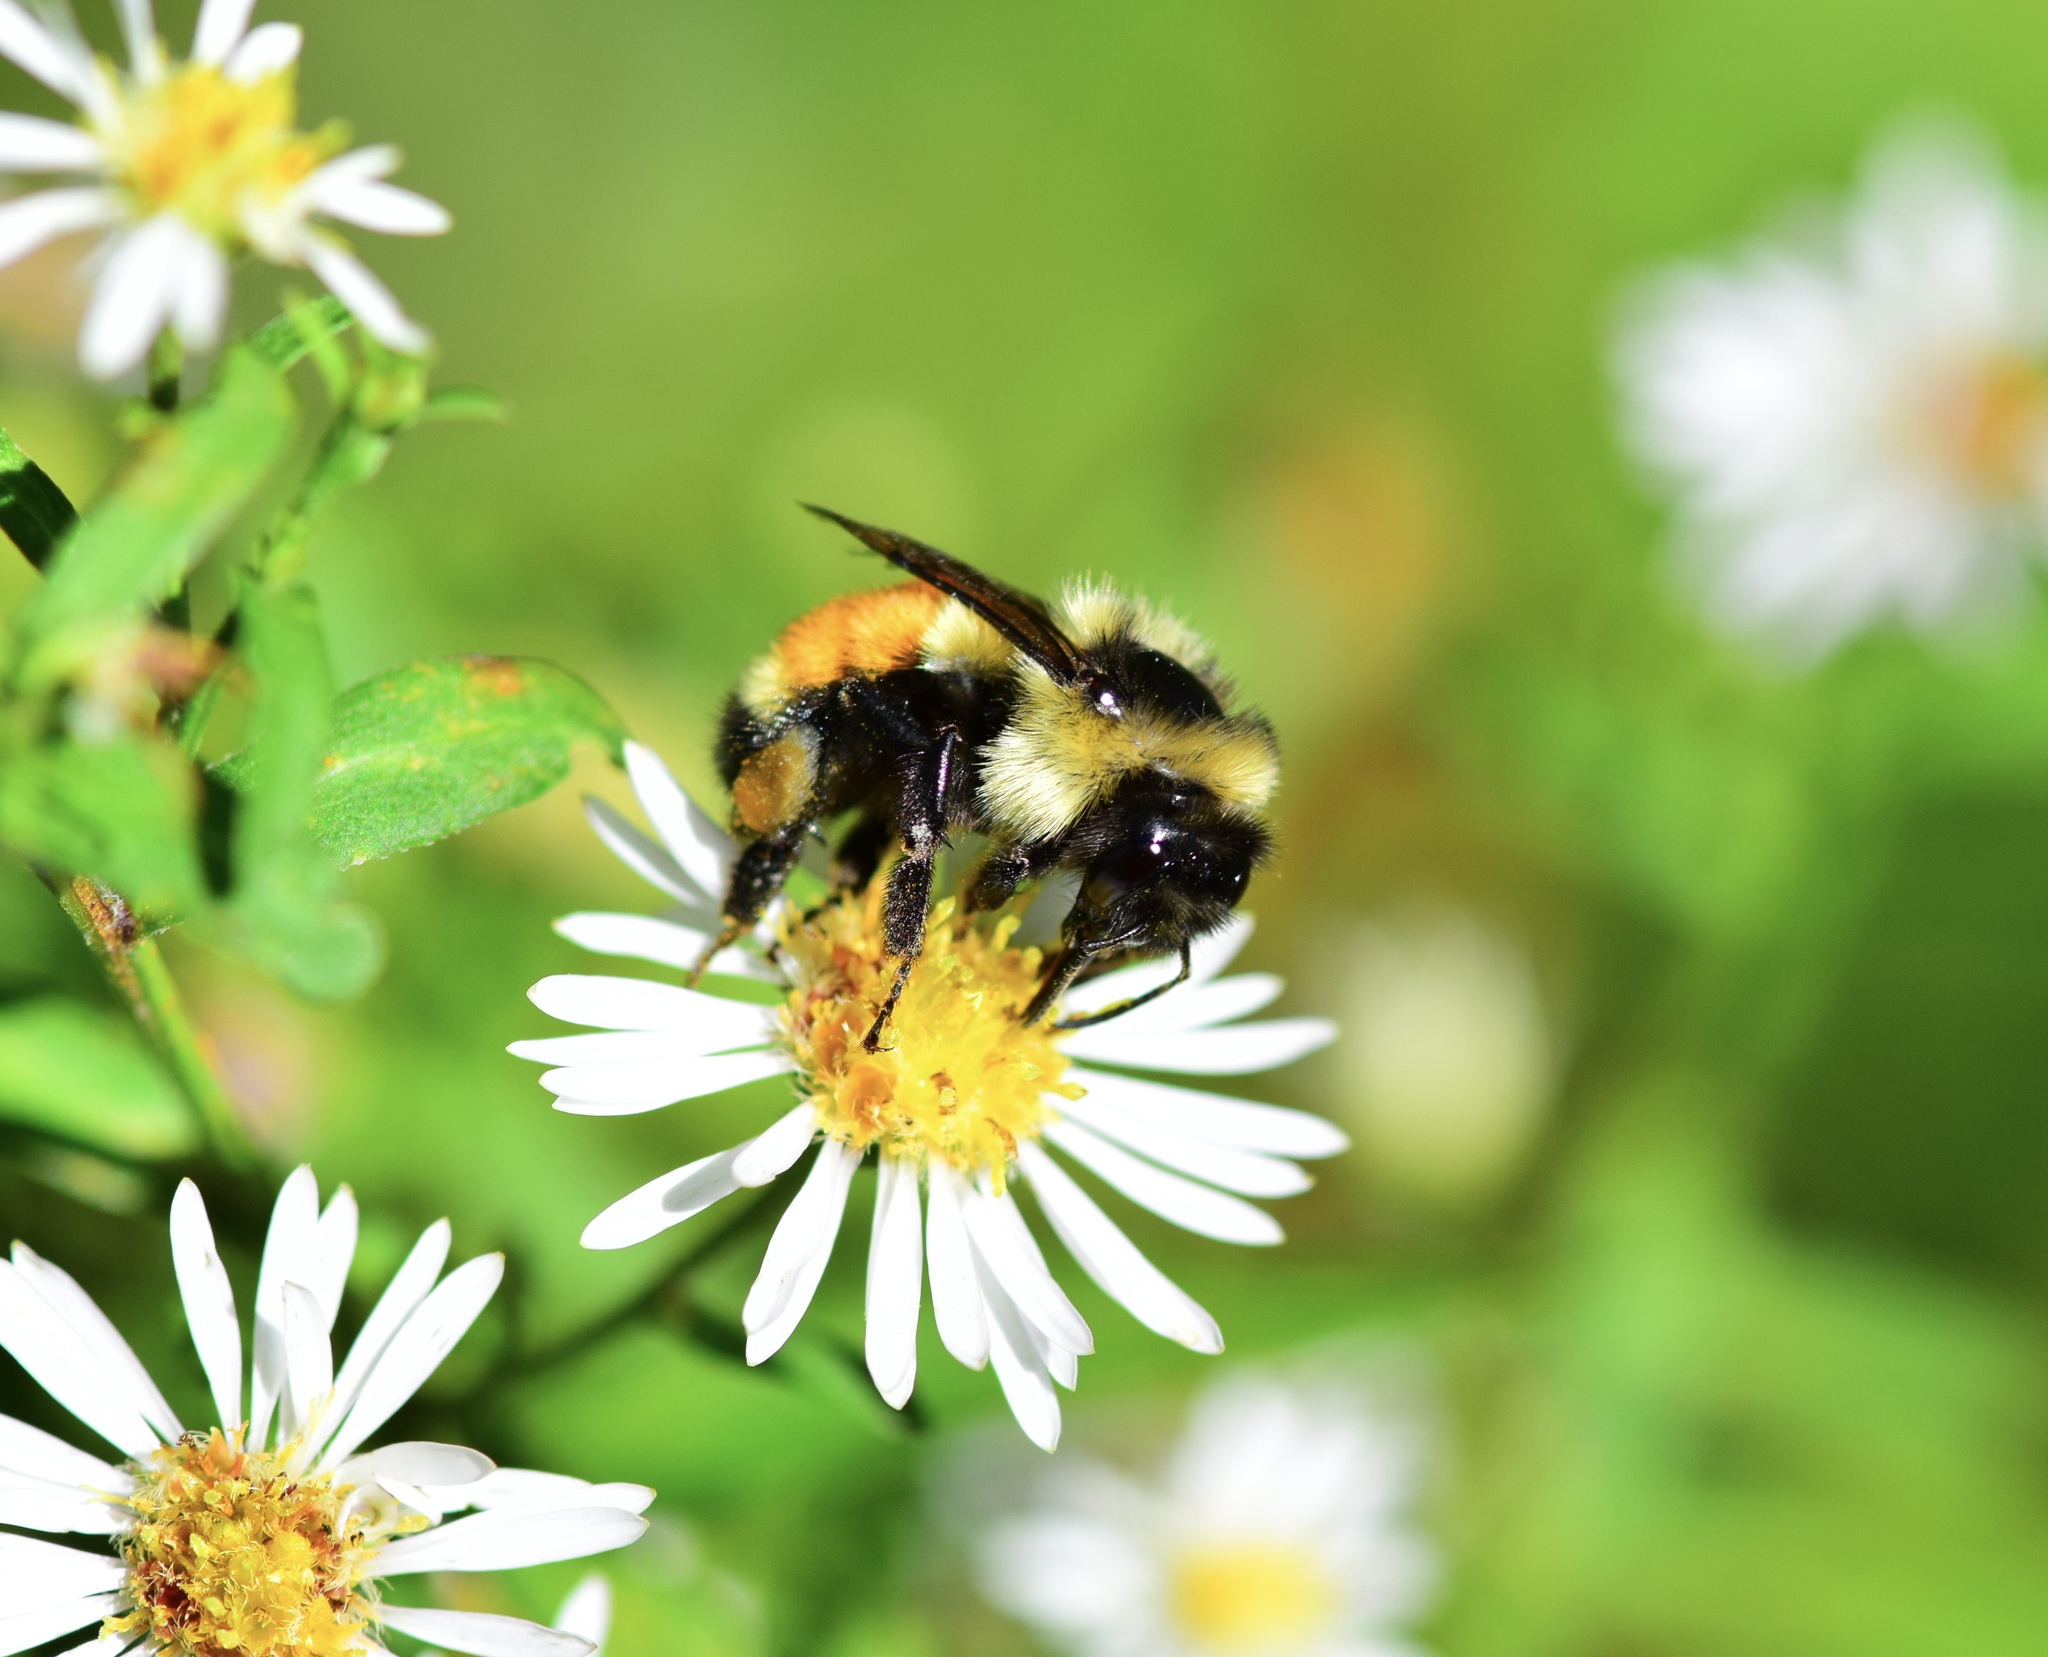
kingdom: Animalia
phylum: Arthropoda
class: Insecta
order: Hymenoptera
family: Apidae
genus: Bombus
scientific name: Bombus ternarius
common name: Tri-colored bumble bee
